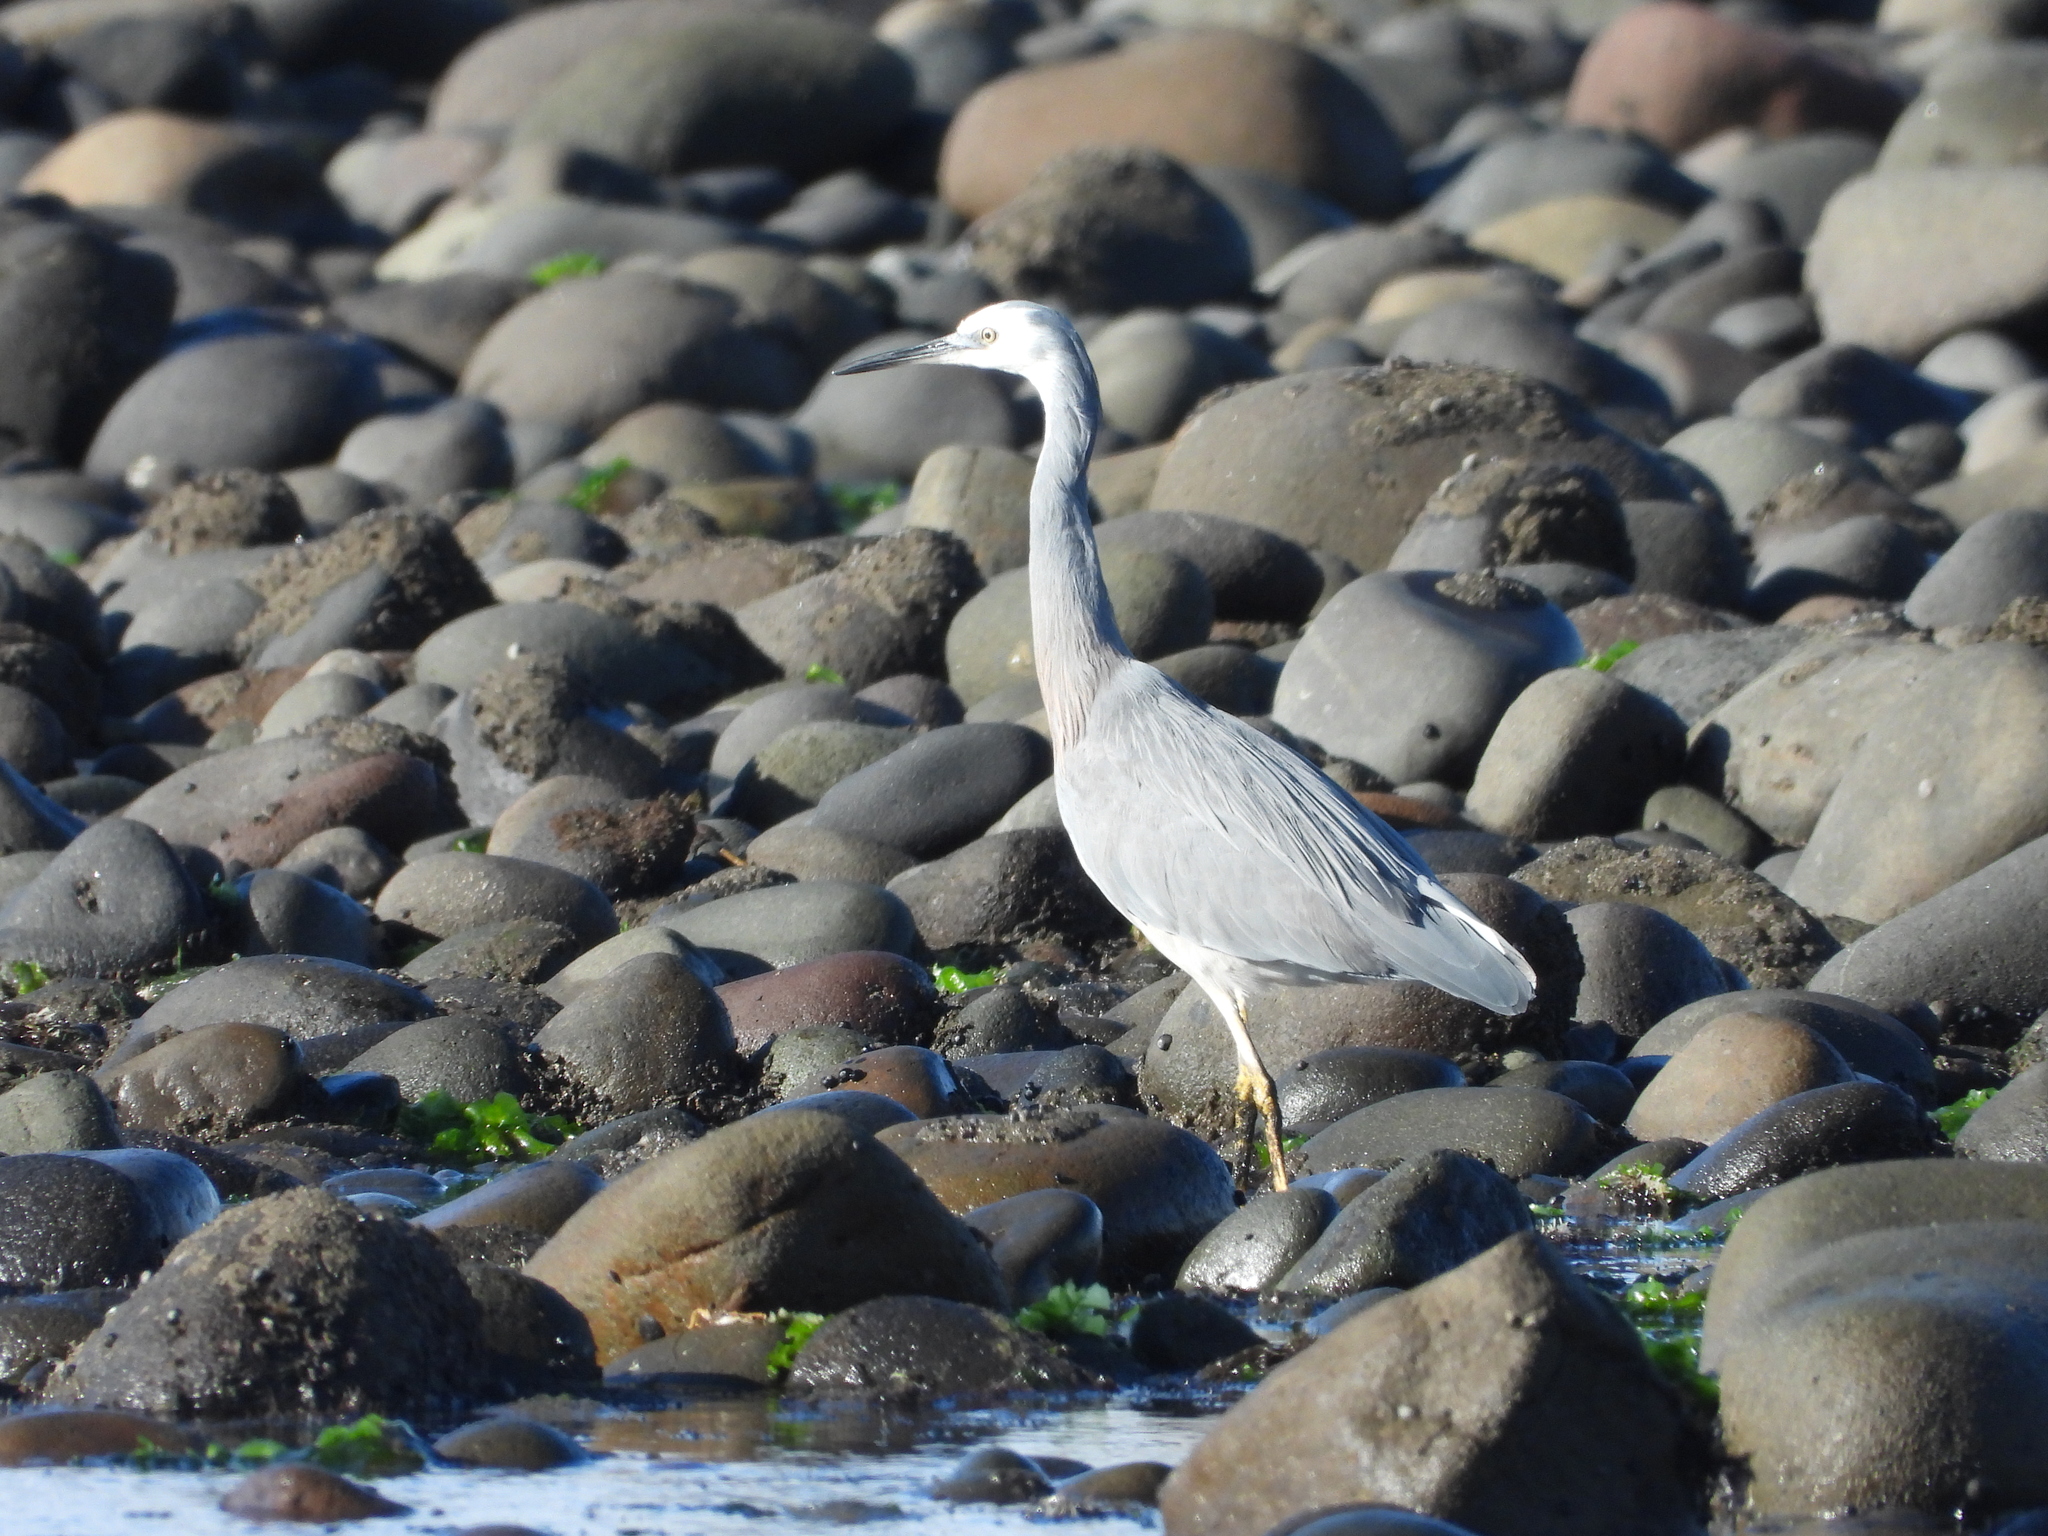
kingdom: Animalia
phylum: Chordata
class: Aves
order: Pelecaniformes
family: Ardeidae
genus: Egretta
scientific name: Egretta novaehollandiae
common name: White-faced heron
